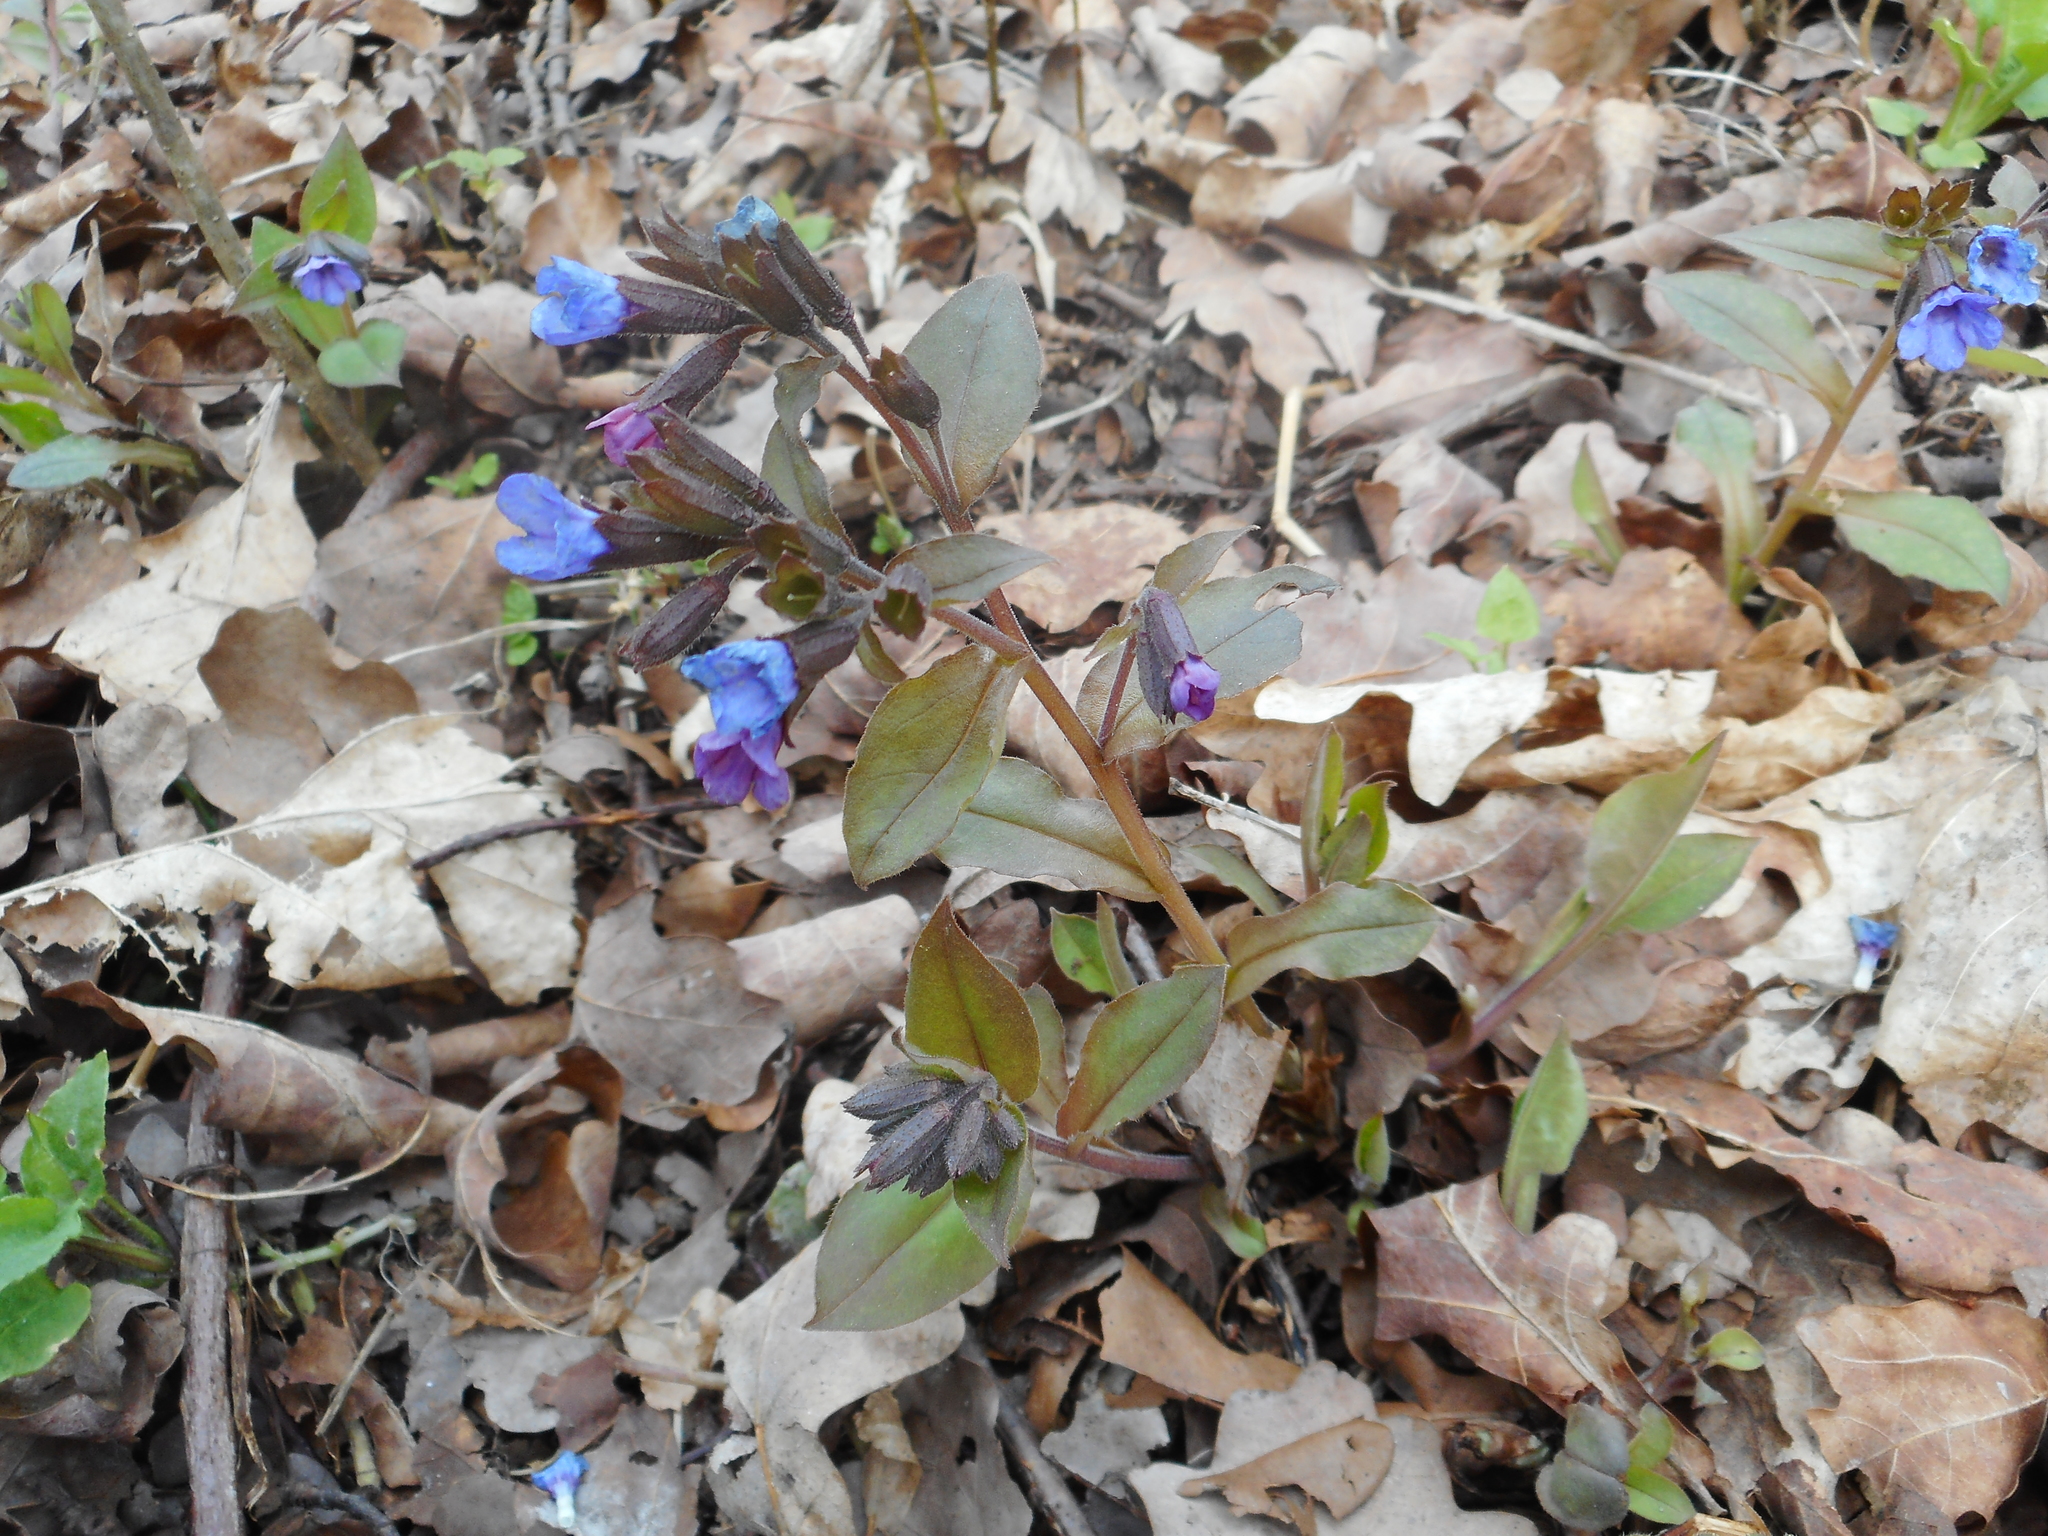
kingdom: Plantae
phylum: Tracheophyta
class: Magnoliopsida
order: Boraginales
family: Boraginaceae
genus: Pulmonaria
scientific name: Pulmonaria obscura
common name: Suffolk lungwort
